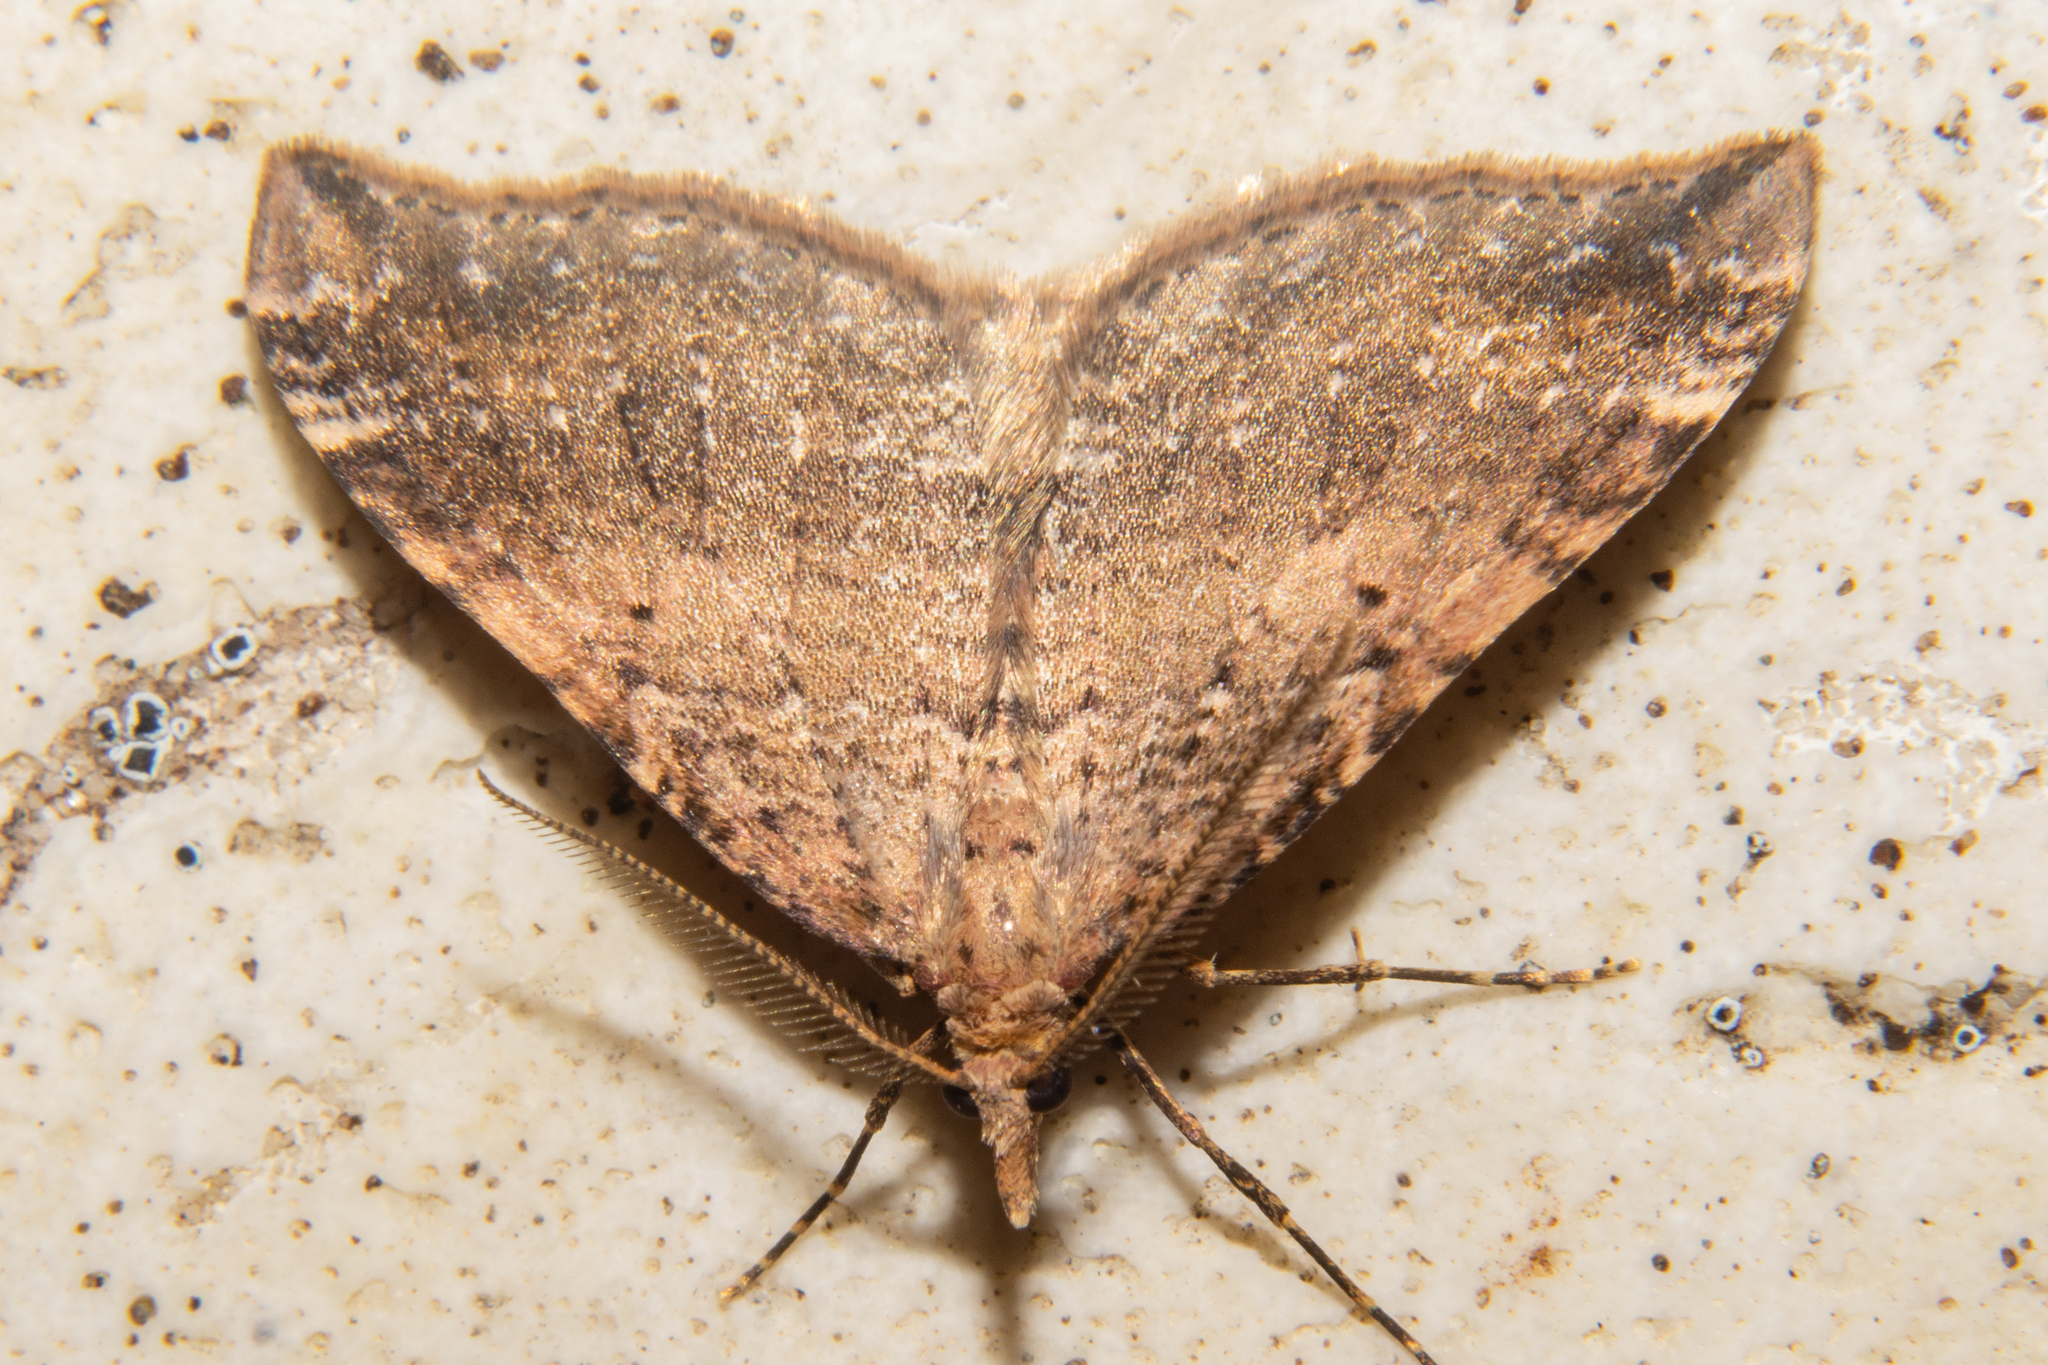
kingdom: Animalia
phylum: Arthropoda
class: Insecta
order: Lepidoptera
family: Geometridae
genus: Homodotis
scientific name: Homodotis falcata
